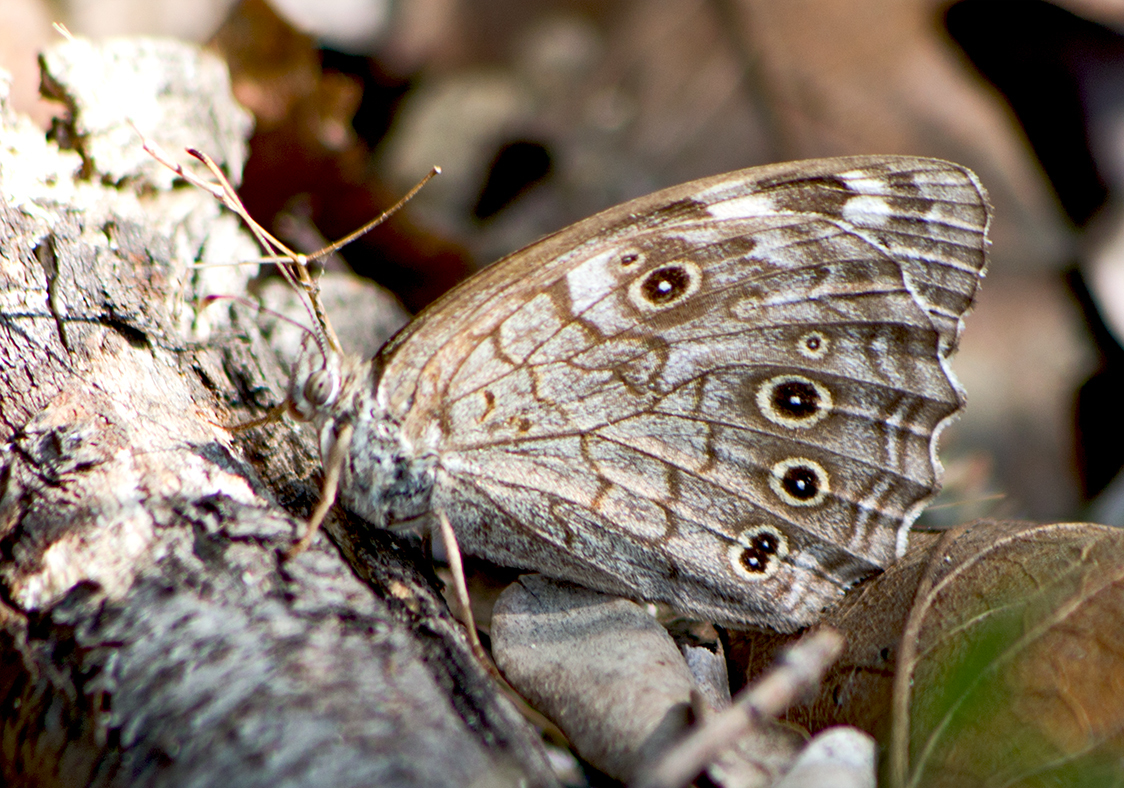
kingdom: Animalia
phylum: Arthropoda
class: Insecta
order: Lepidoptera
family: Nymphalidae
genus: Kirinia
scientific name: Kirinia roxelana
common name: Lattice brown
